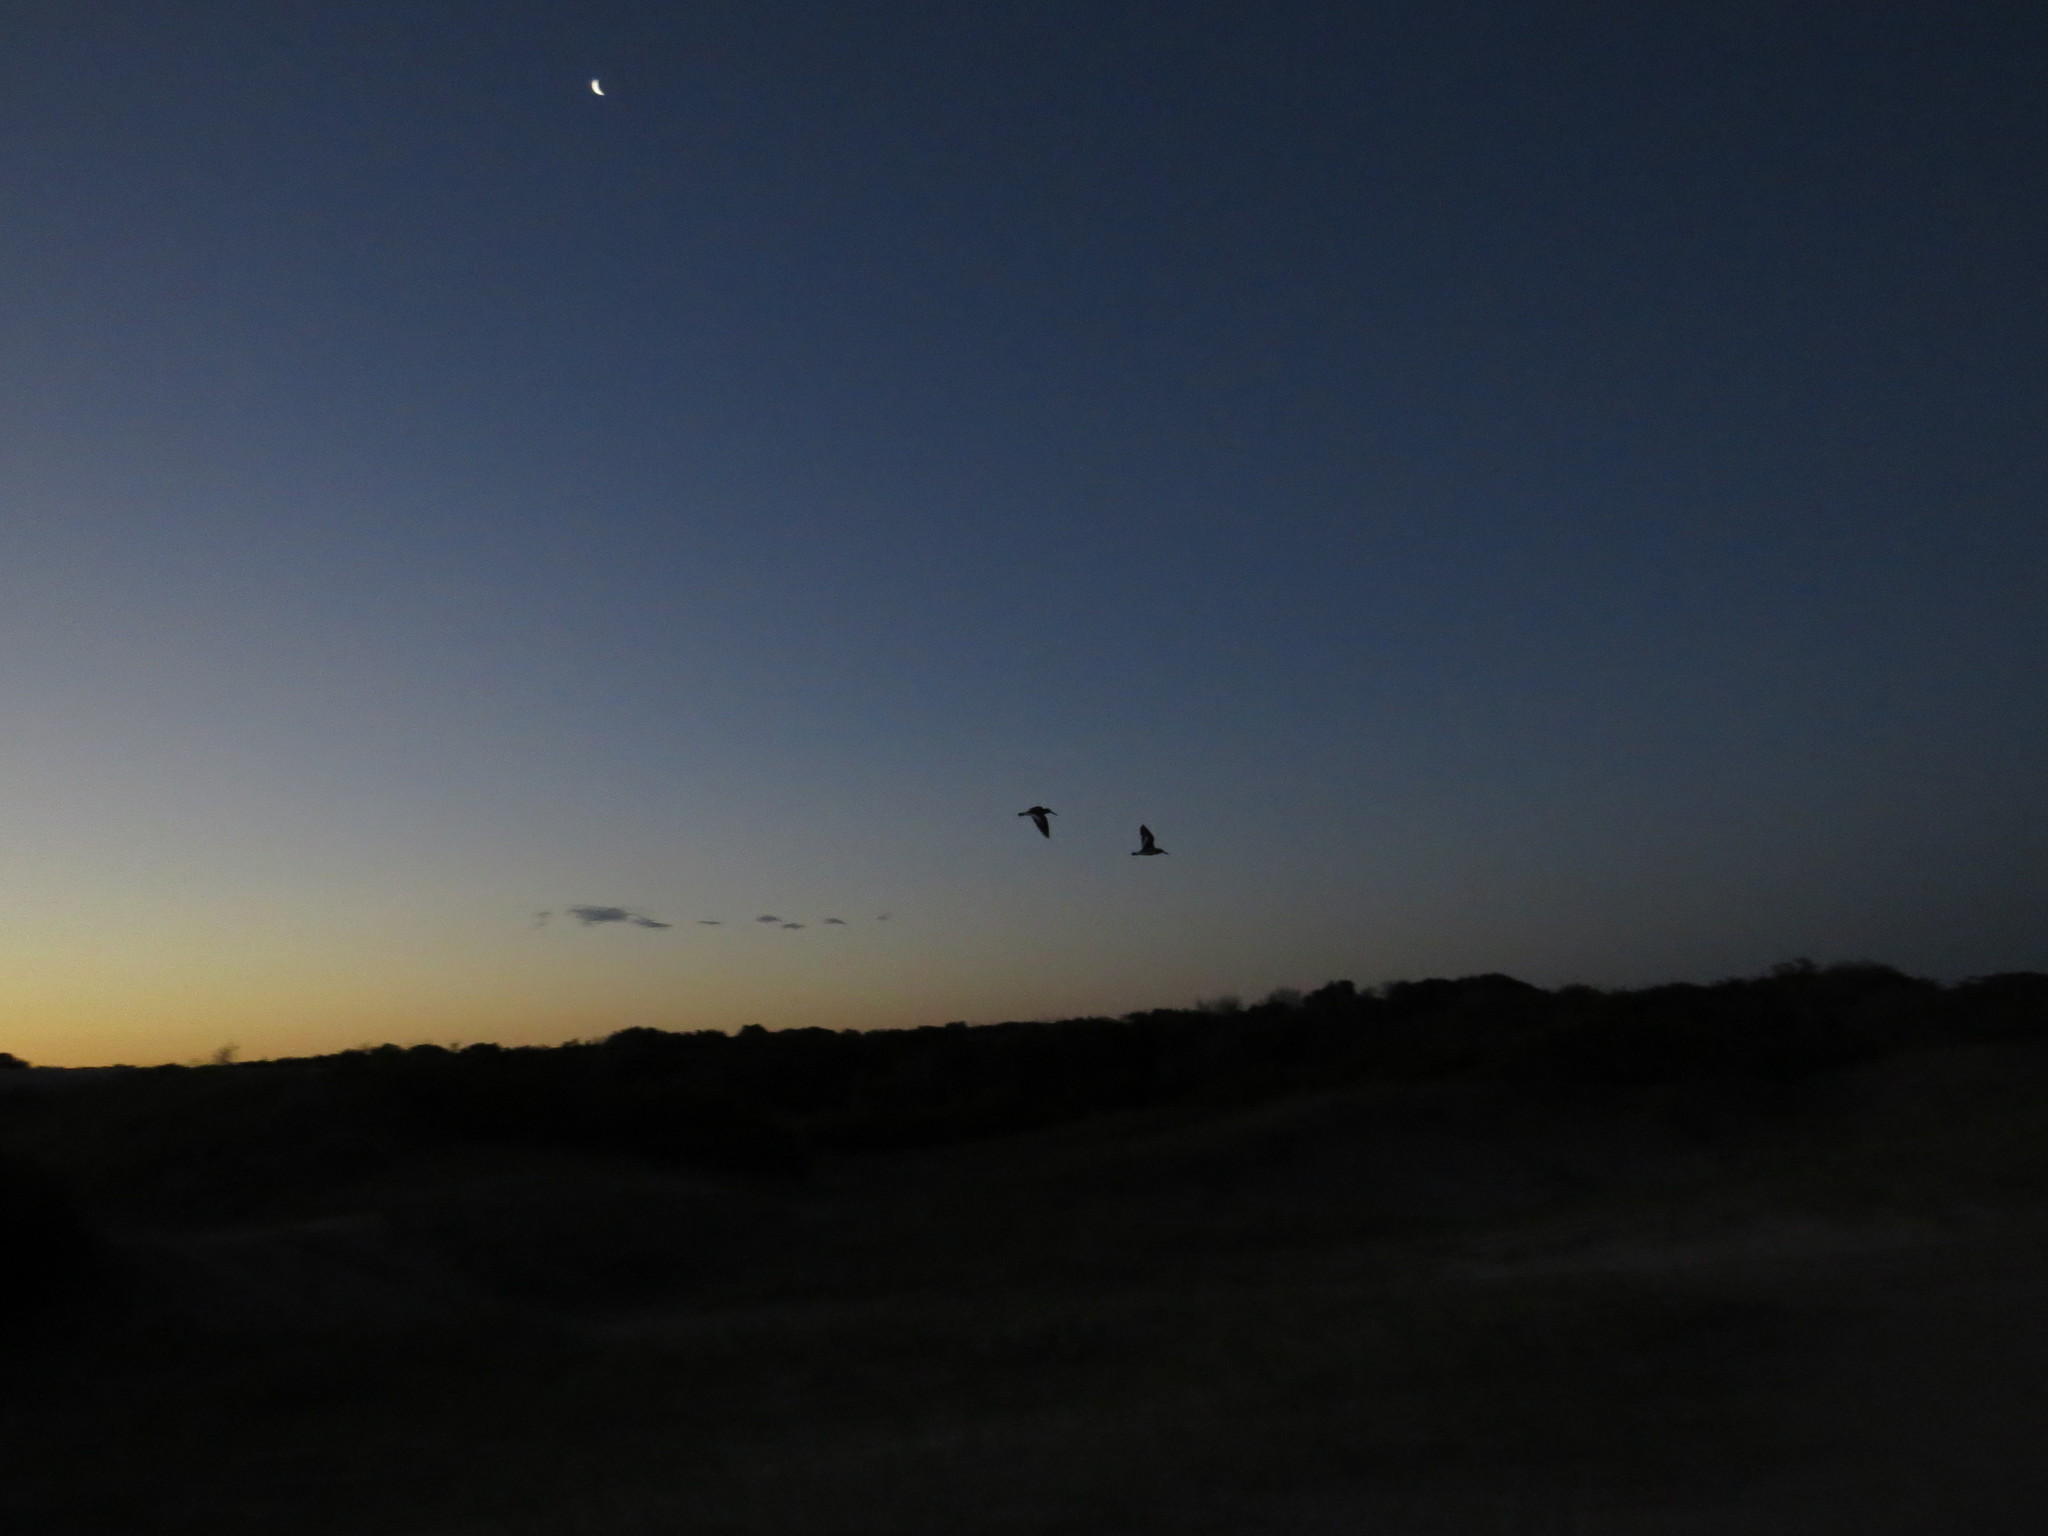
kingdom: Animalia
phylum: Chordata
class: Aves
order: Charadriiformes
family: Haematopodidae
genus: Haematopus
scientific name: Haematopus palliatus
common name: American oystercatcher
